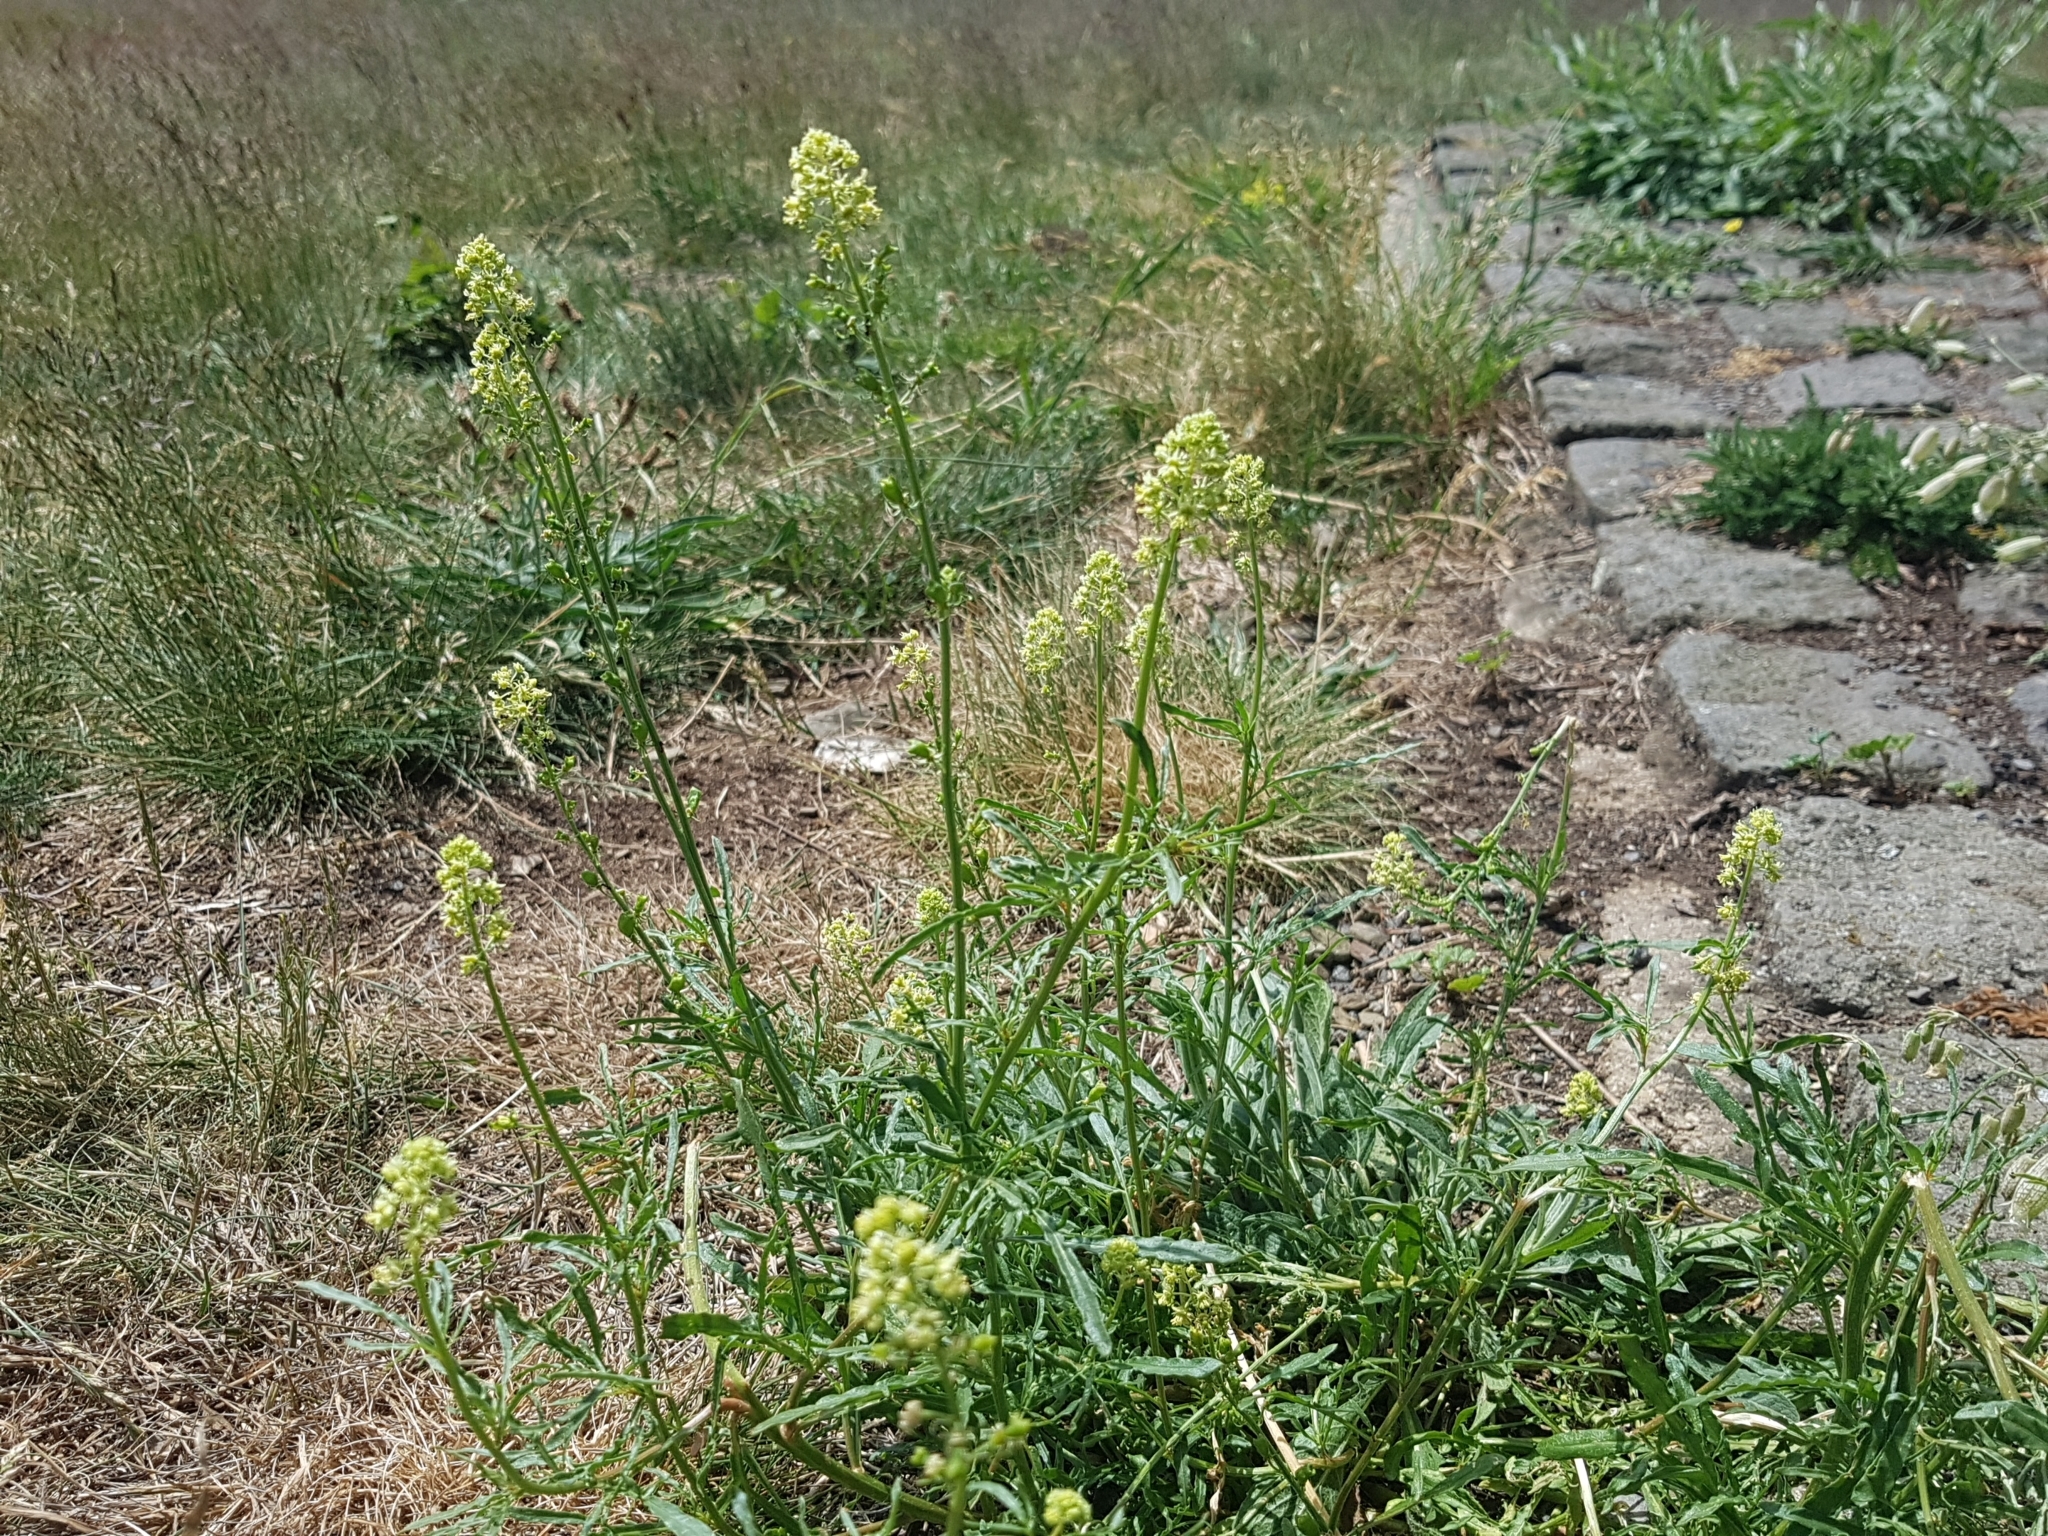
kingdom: Plantae
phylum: Tracheophyta
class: Magnoliopsida
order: Brassicales
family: Resedaceae
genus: Reseda
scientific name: Reseda lutea
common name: Wild mignonette
